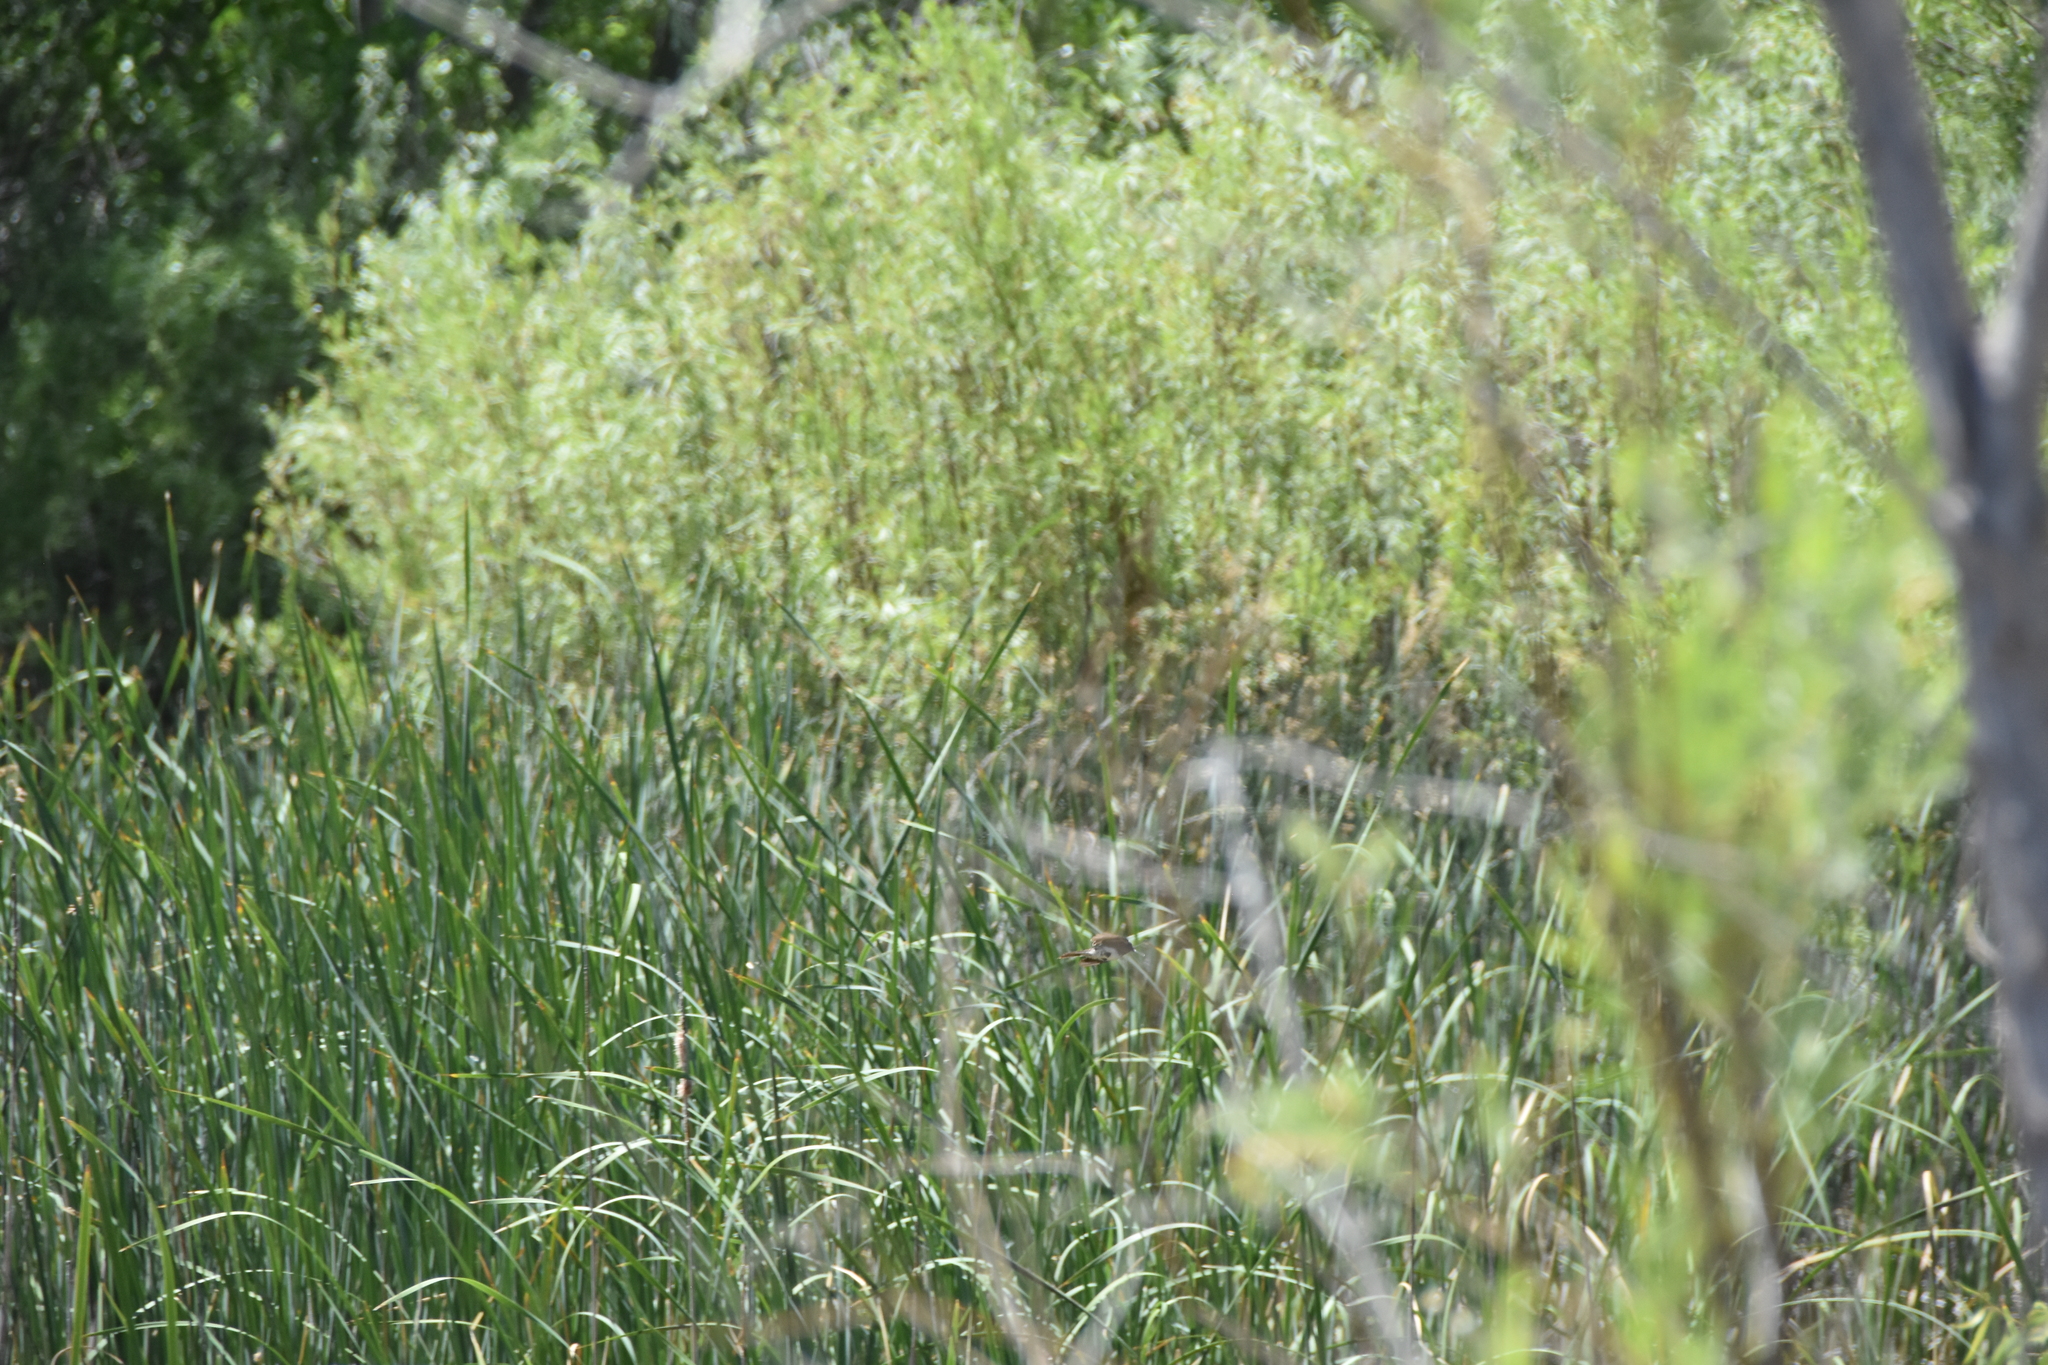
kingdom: Animalia
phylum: Chordata
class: Aves
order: Passeriformes
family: Tyrannidae
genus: Sayornis
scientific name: Sayornis nigricans
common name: Black phoebe
